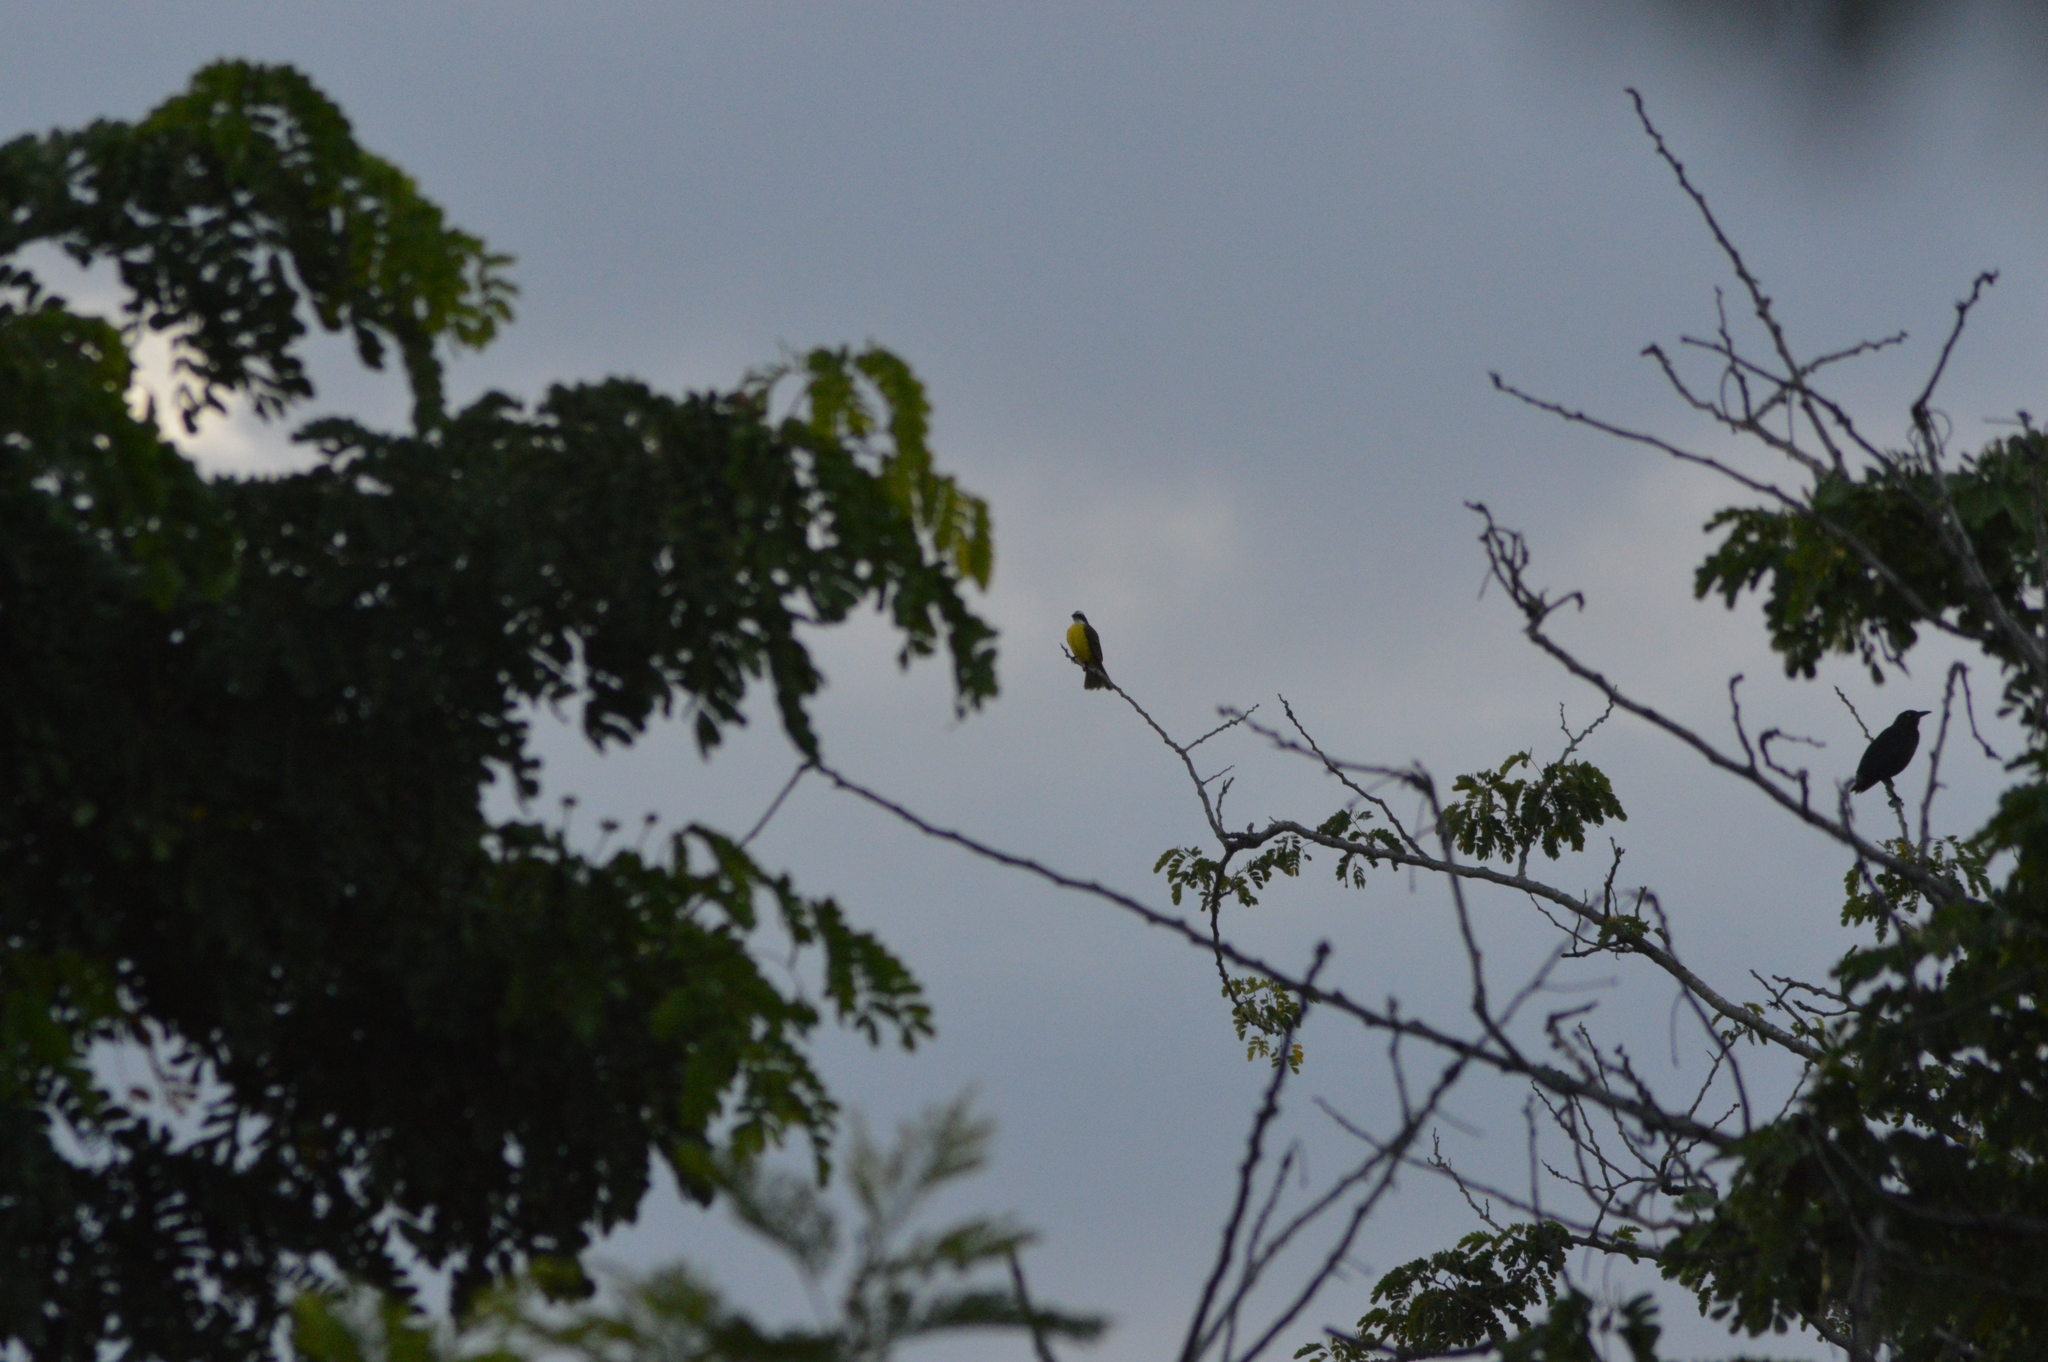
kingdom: Animalia
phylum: Chordata
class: Aves
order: Passeriformes
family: Tyrannidae
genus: Myiozetetes
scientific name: Myiozetetes similis
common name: Social flycatcher
